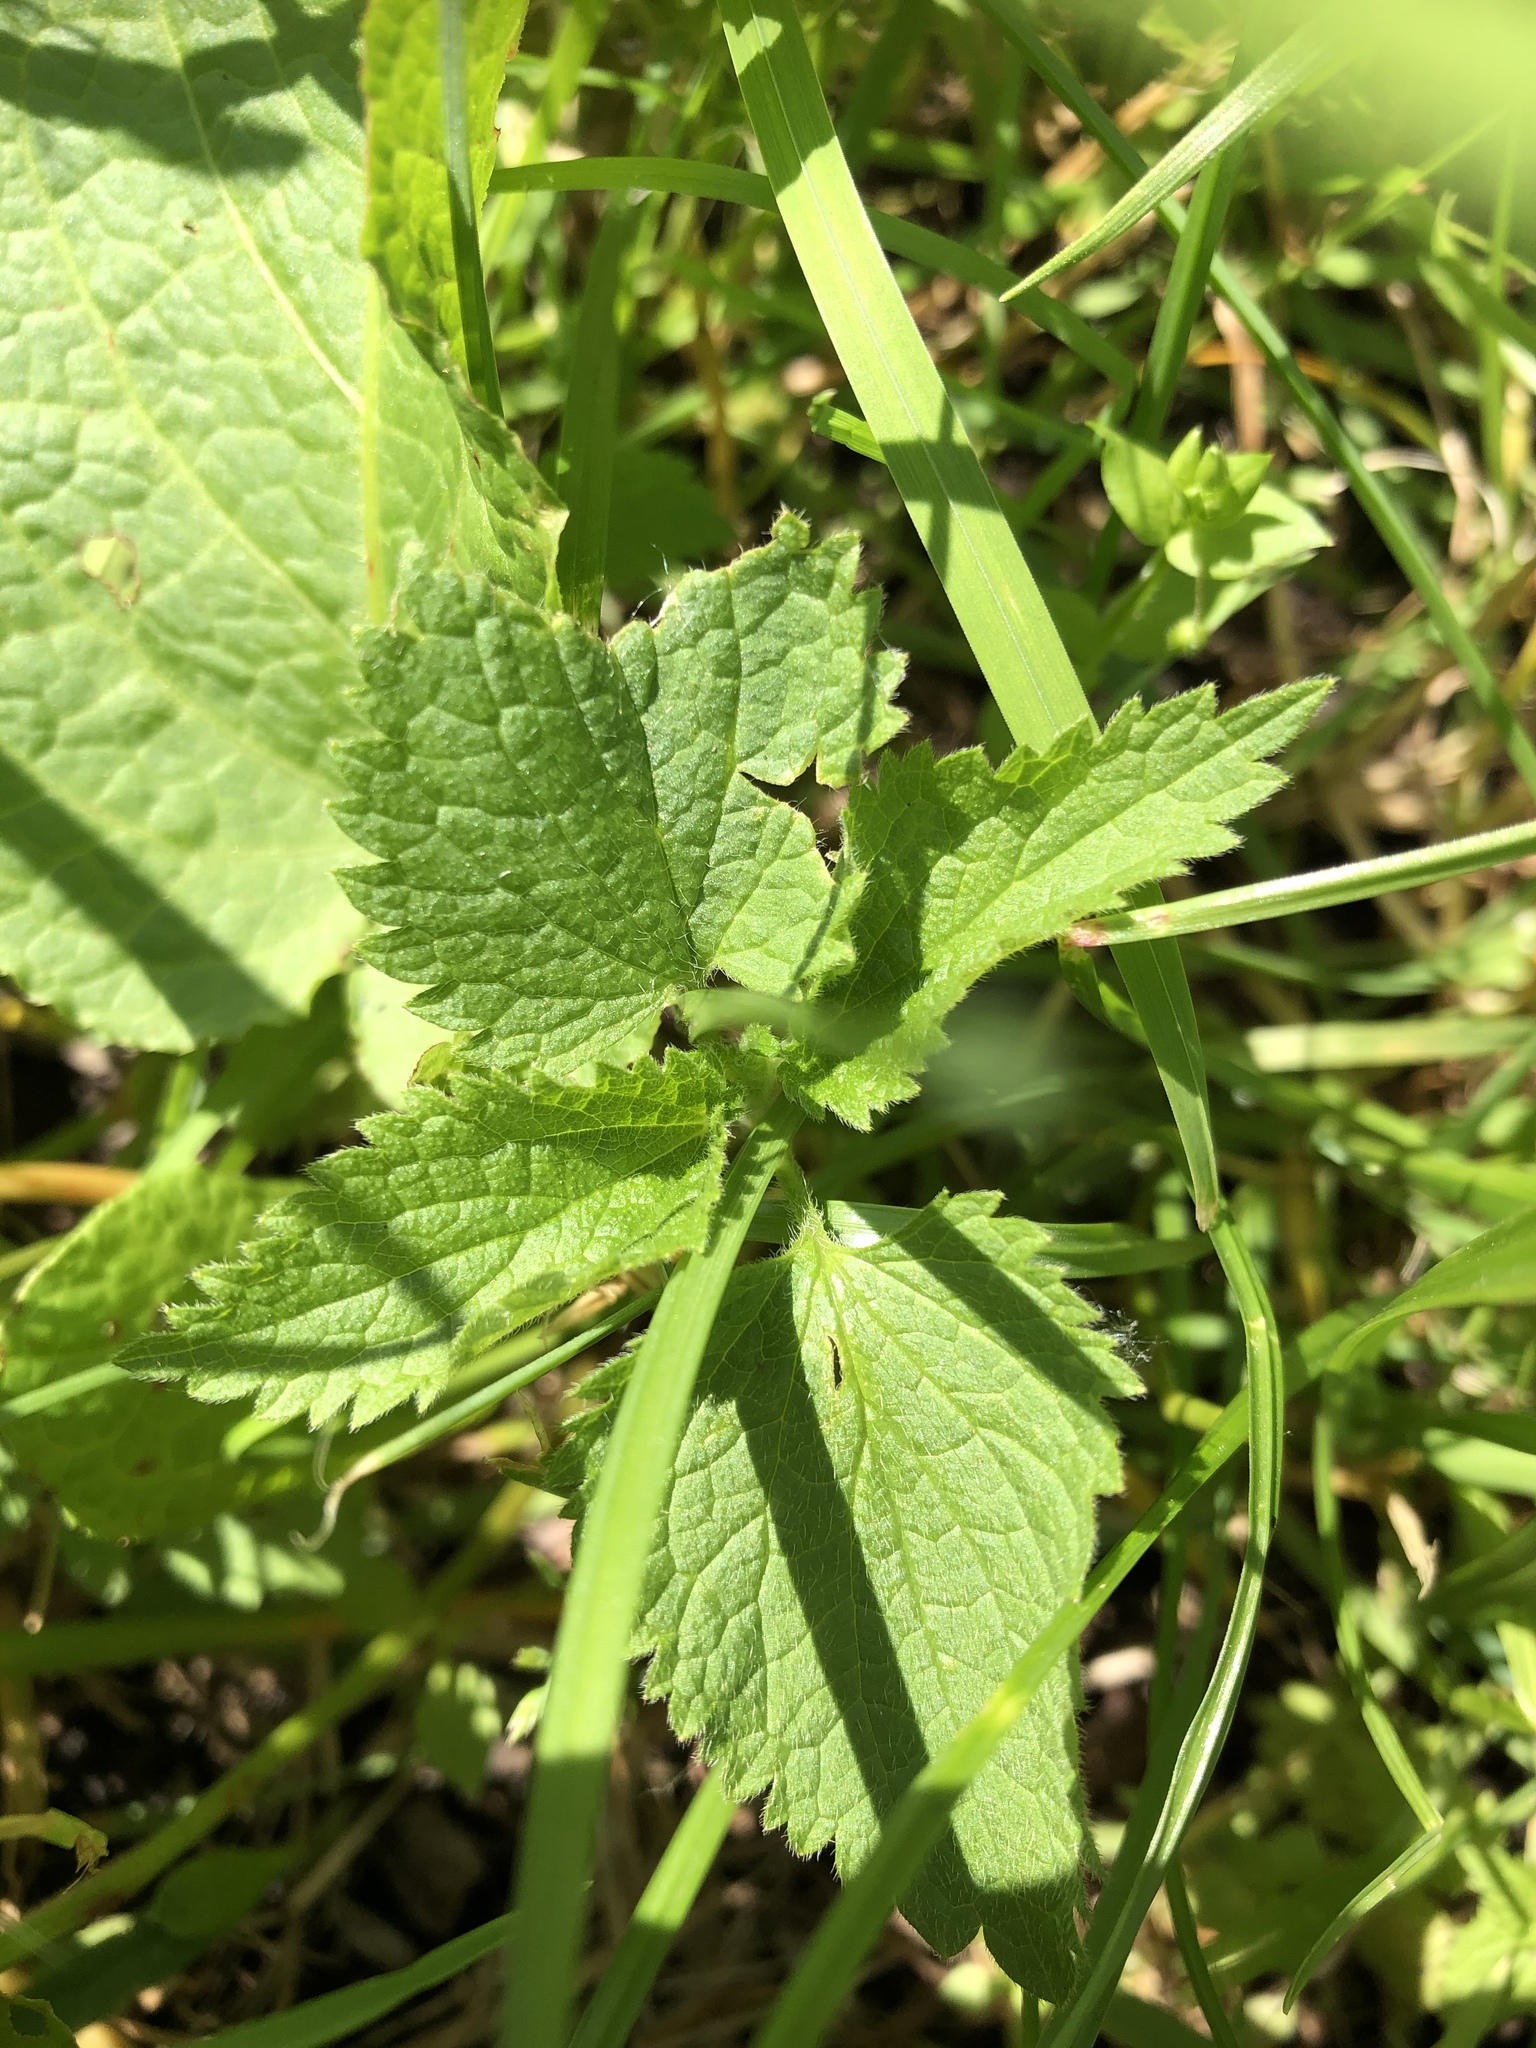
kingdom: Plantae
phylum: Tracheophyta
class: Magnoliopsida
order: Lamiales
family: Lamiaceae
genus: Lamium
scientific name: Lamium album
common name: White dead-nettle
